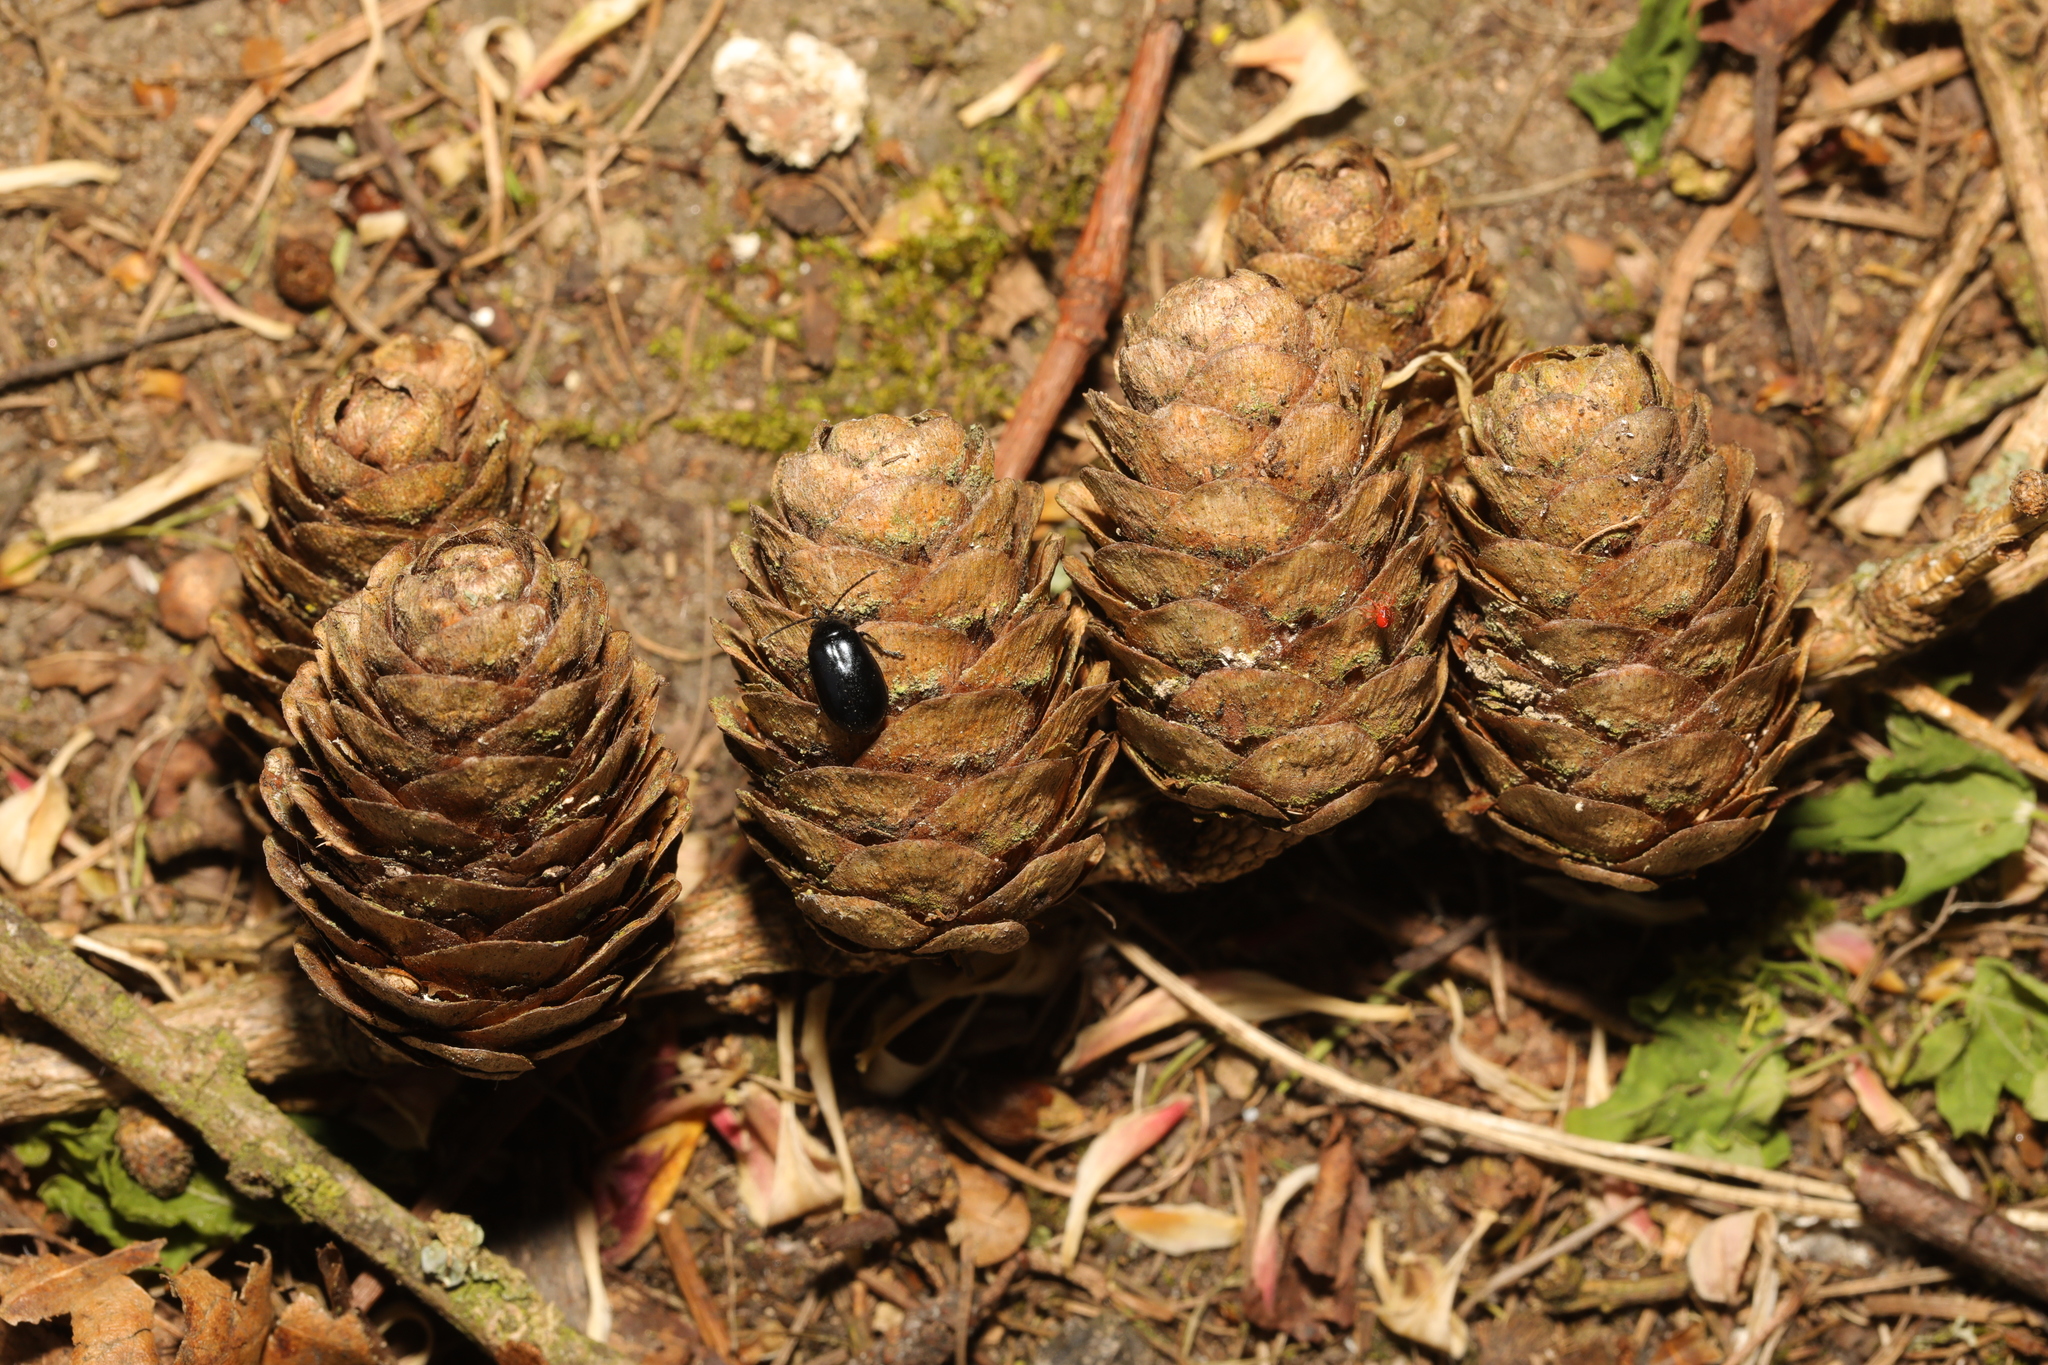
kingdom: Plantae
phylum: Tracheophyta
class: Pinopsida
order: Pinales
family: Pinaceae
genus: Larix
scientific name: Larix decidua
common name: European larch
